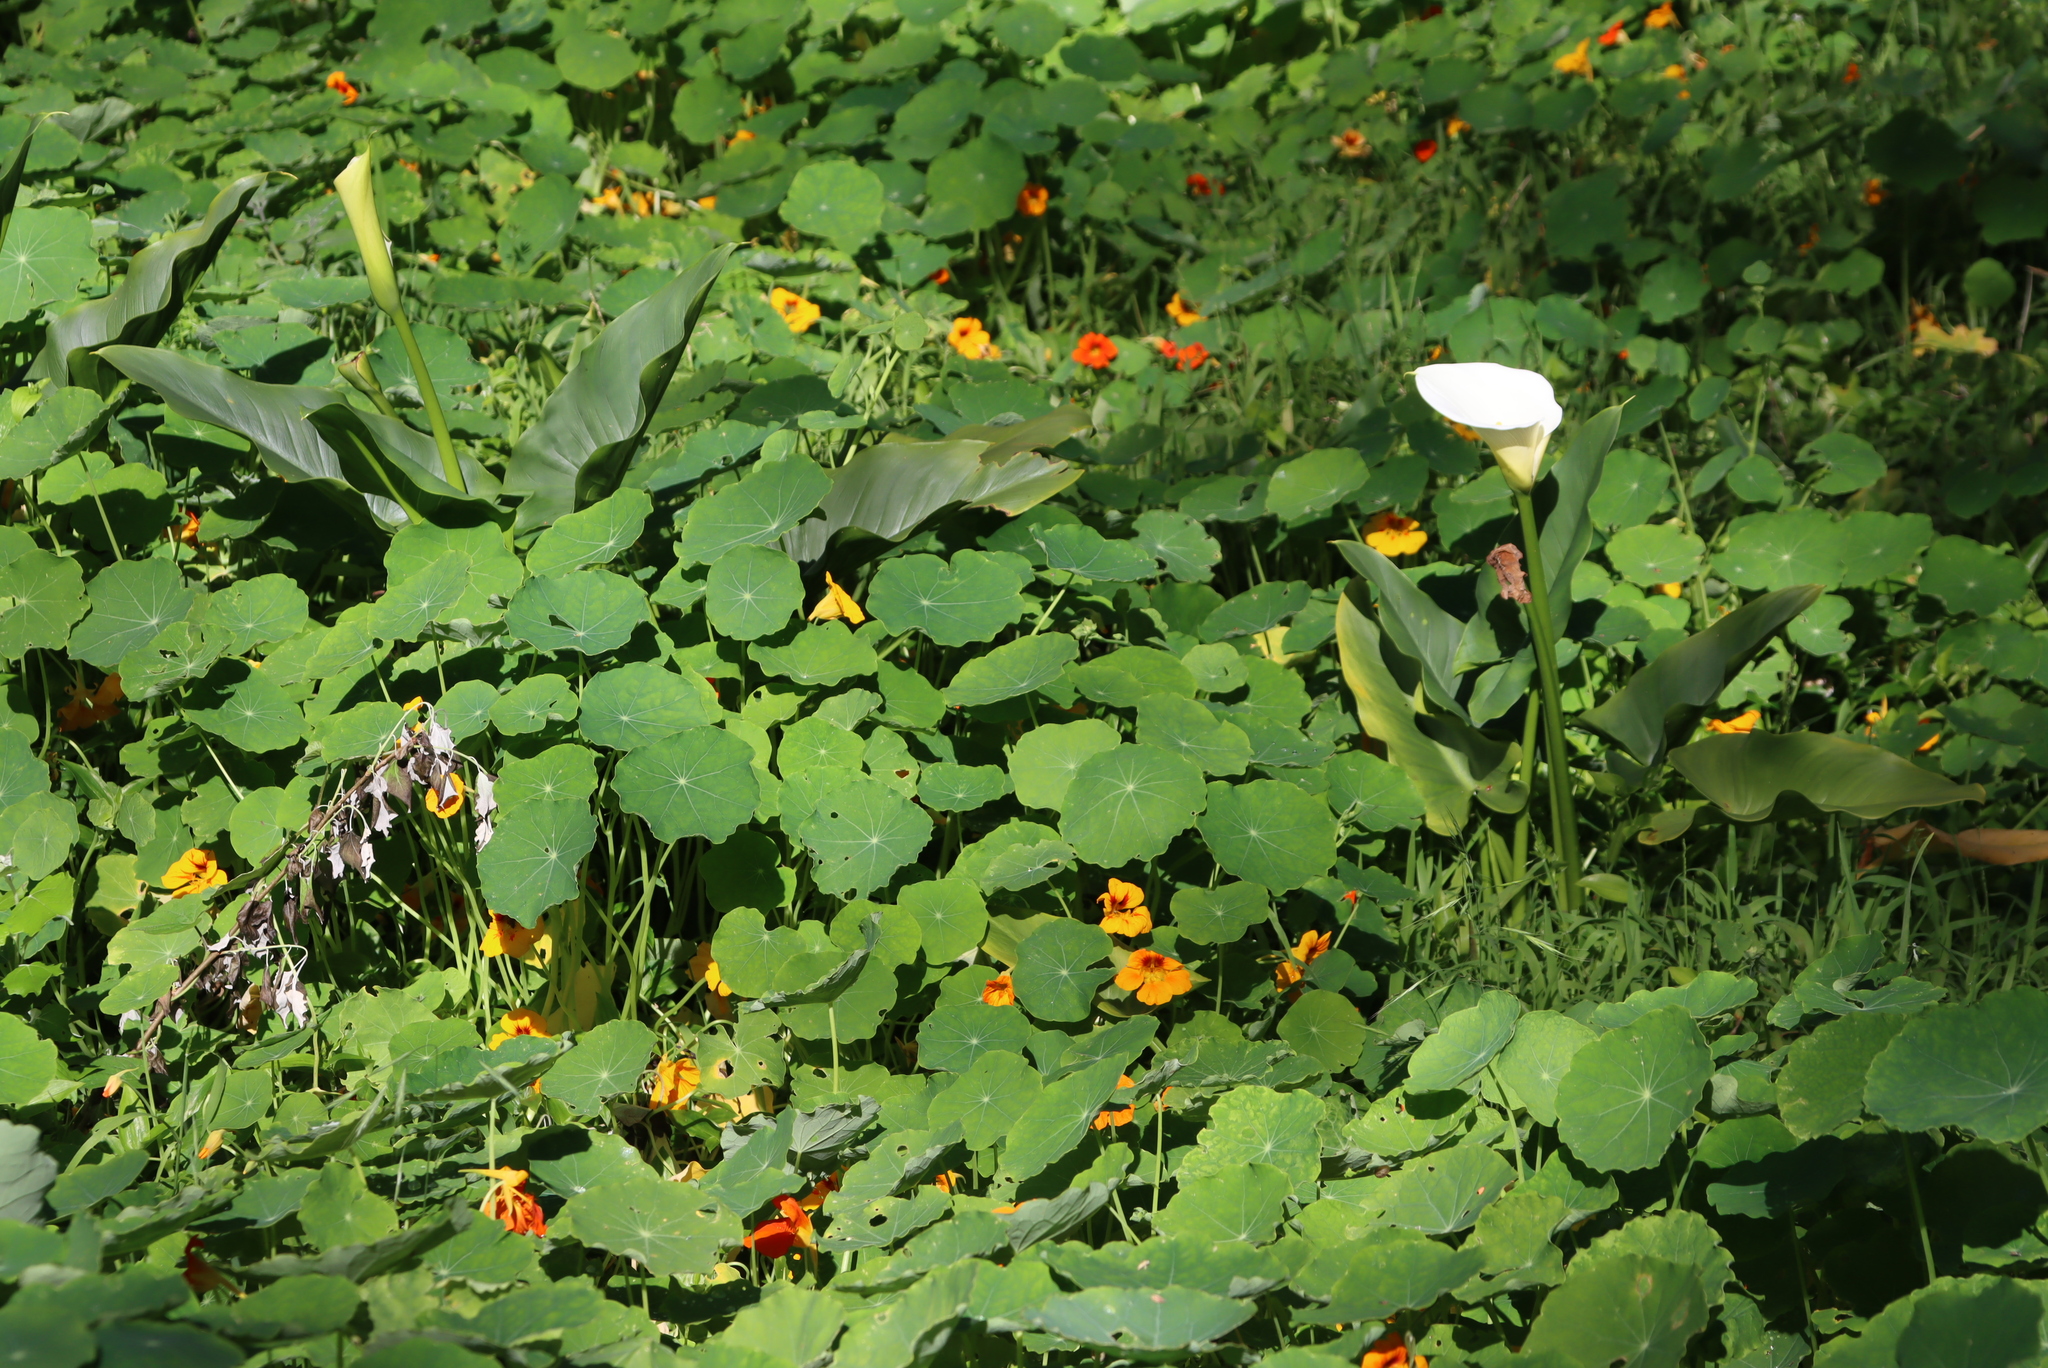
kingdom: Plantae
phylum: Tracheophyta
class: Liliopsida
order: Alismatales
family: Araceae
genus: Zantedeschia
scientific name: Zantedeschia aethiopica
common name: Altar-lily
